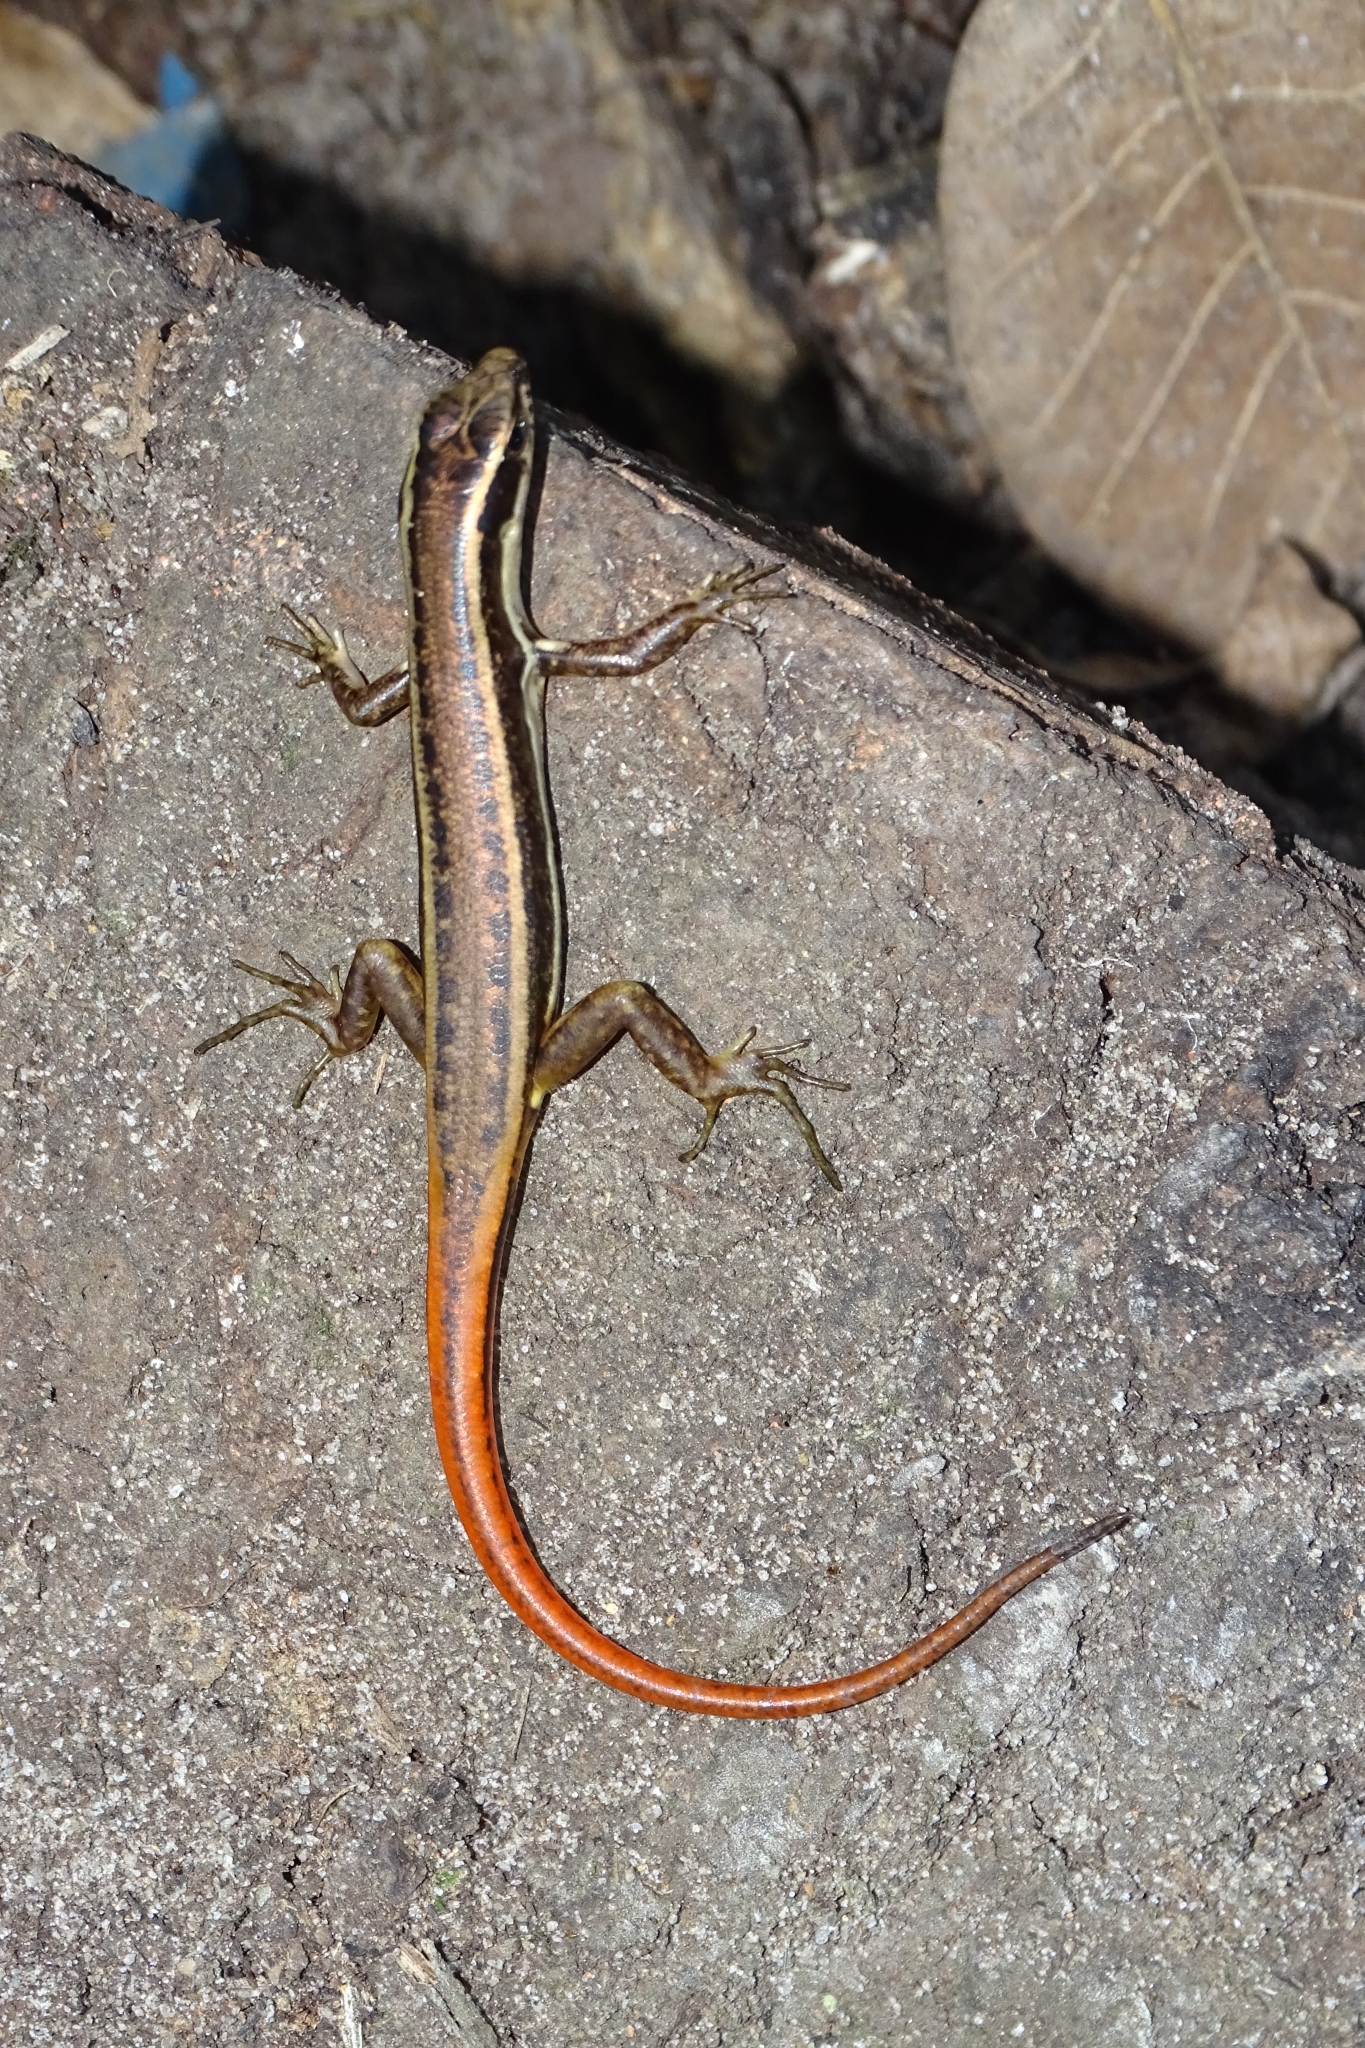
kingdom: Animalia
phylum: Chordata
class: Squamata
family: Scincidae
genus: Sphenomorphus
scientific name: Sphenomorphus dussumieri
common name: Dussumier's forest skink
